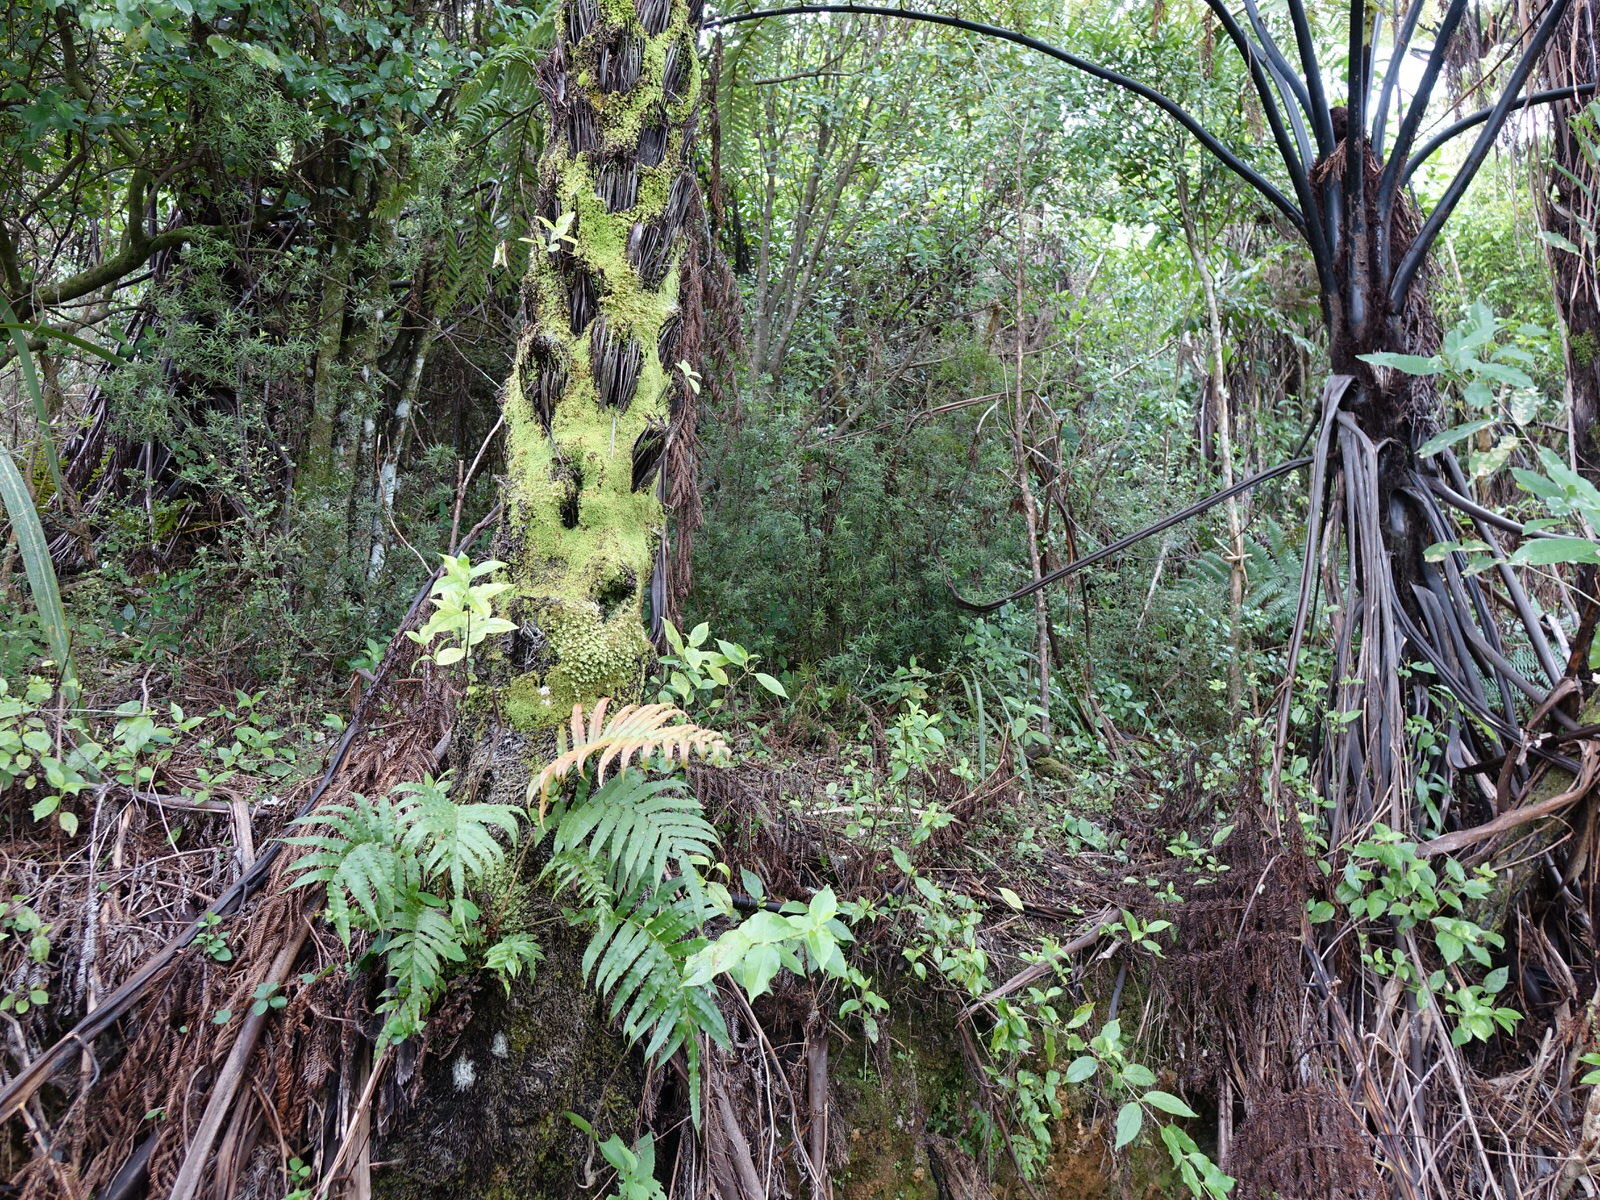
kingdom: Plantae
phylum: Tracheophyta
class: Polypodiopsida
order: Polypodiales
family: Blechnaceae
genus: Parablechnum
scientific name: Parablechnum novae-zelandiae
